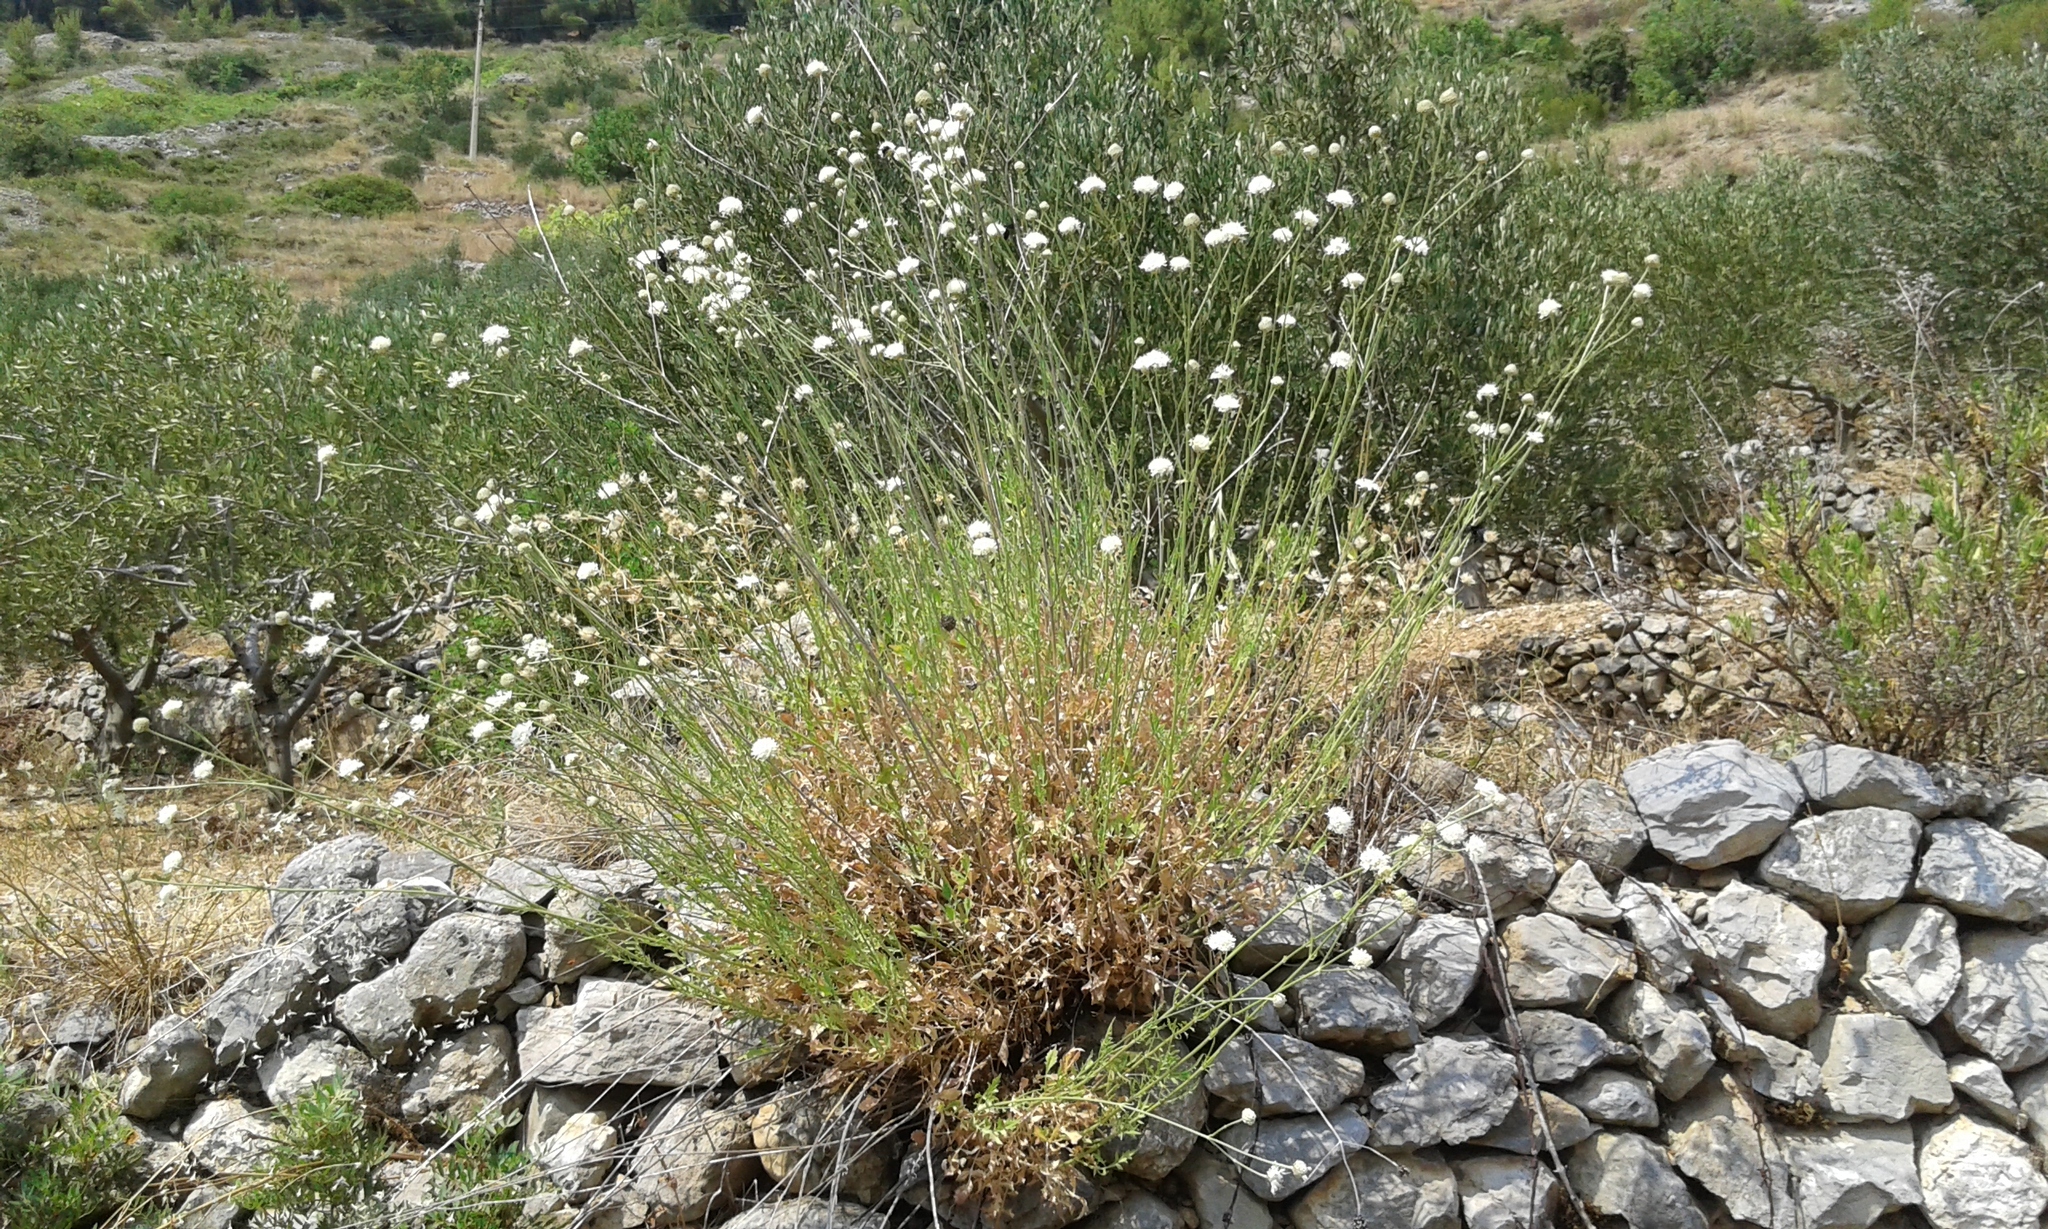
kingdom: Plantae
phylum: Tracheophyta
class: Magnoliopsida
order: Dipsacales
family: Caprifoliaceae
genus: Cephalaria
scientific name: Cephalaria leucantha
